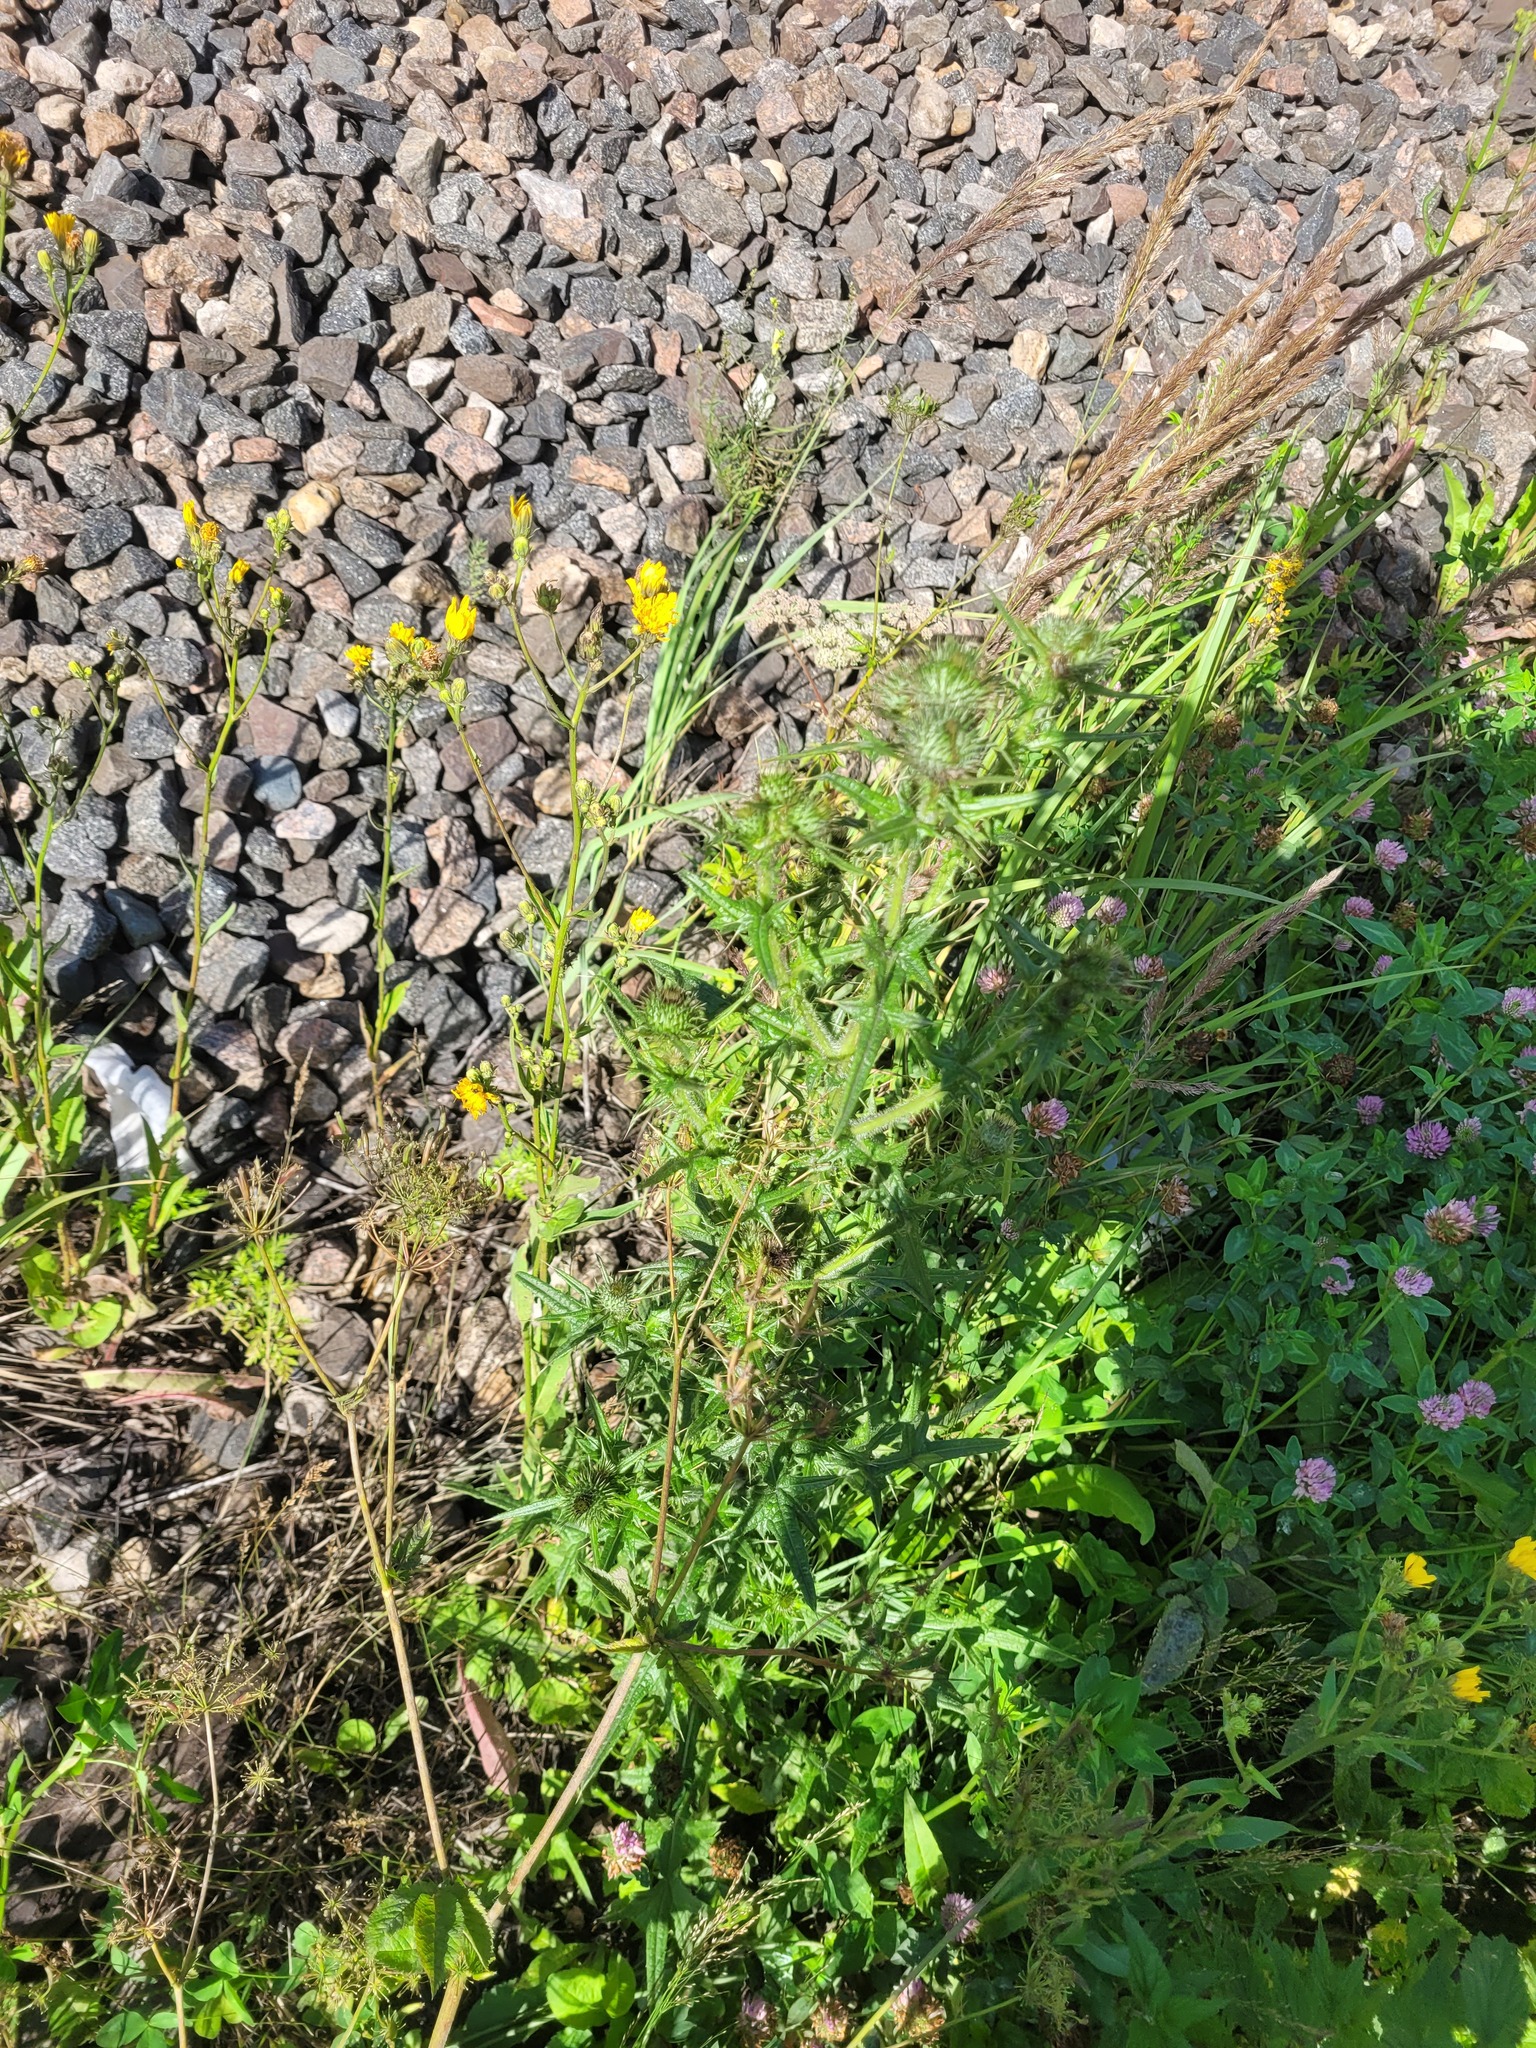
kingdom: Plantae
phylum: Tracheophyta
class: Magnoliopsida
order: Asterales
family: Asteraceae
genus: Cirsium
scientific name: Cirsium vulgare
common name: Bull thistle
